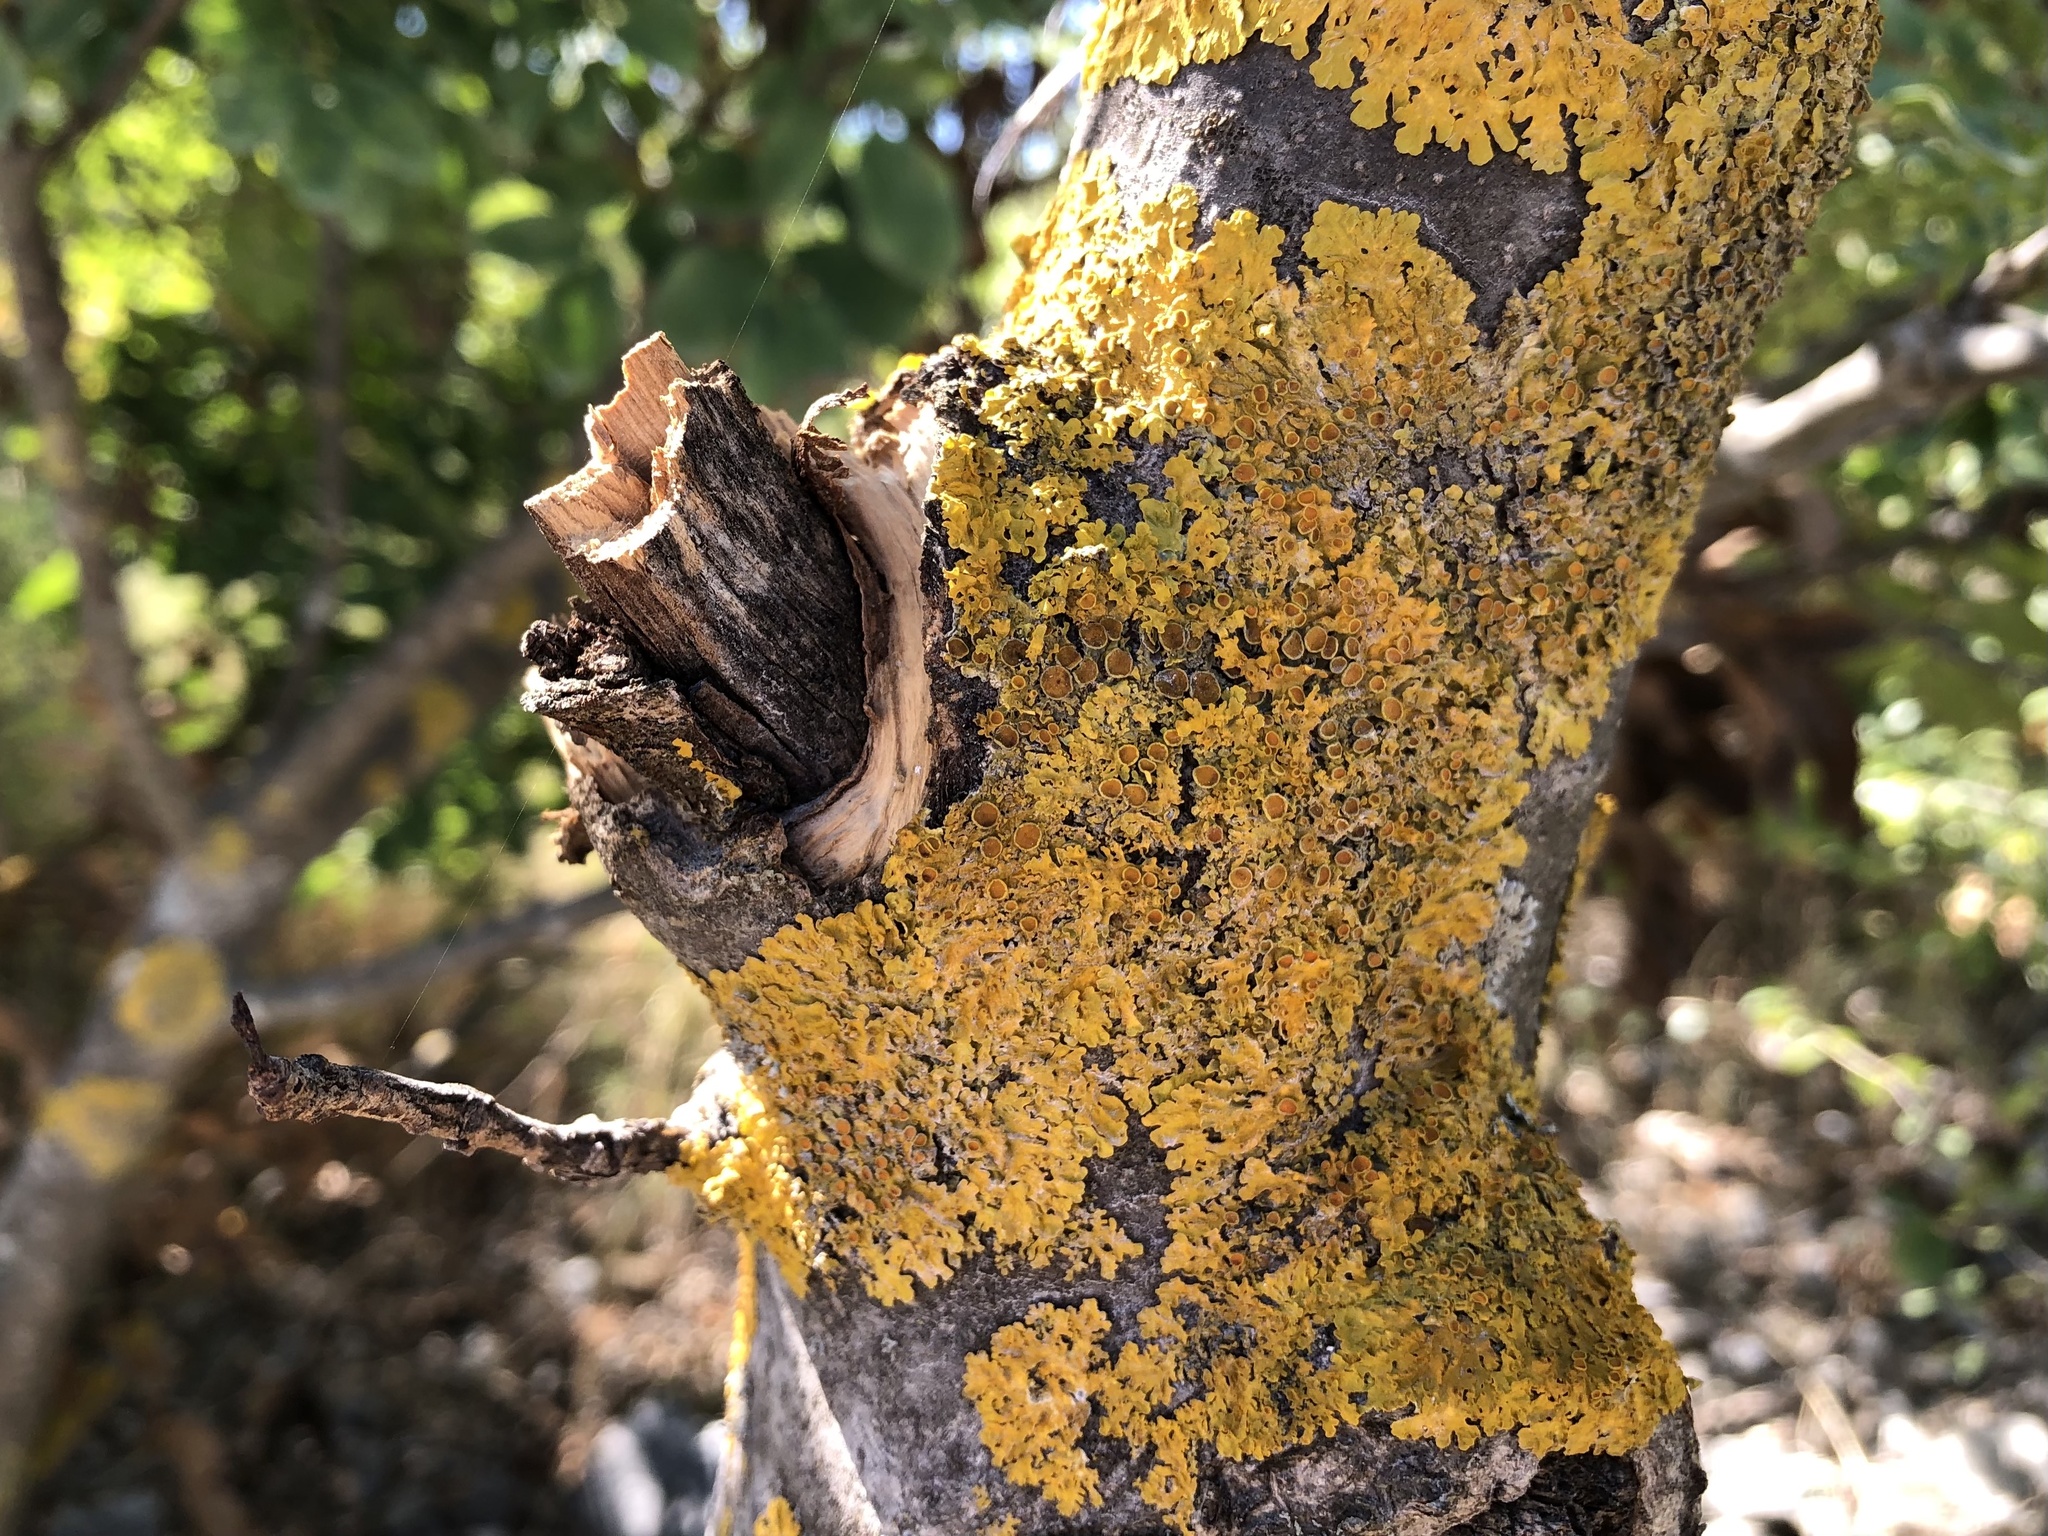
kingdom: Fungi
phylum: Ascomycota
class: Lecanoromycetes
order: Teloschistales
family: Teloschistaceae
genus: Xanthoria
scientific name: Xanthoria parietina
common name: Common orange lichen
